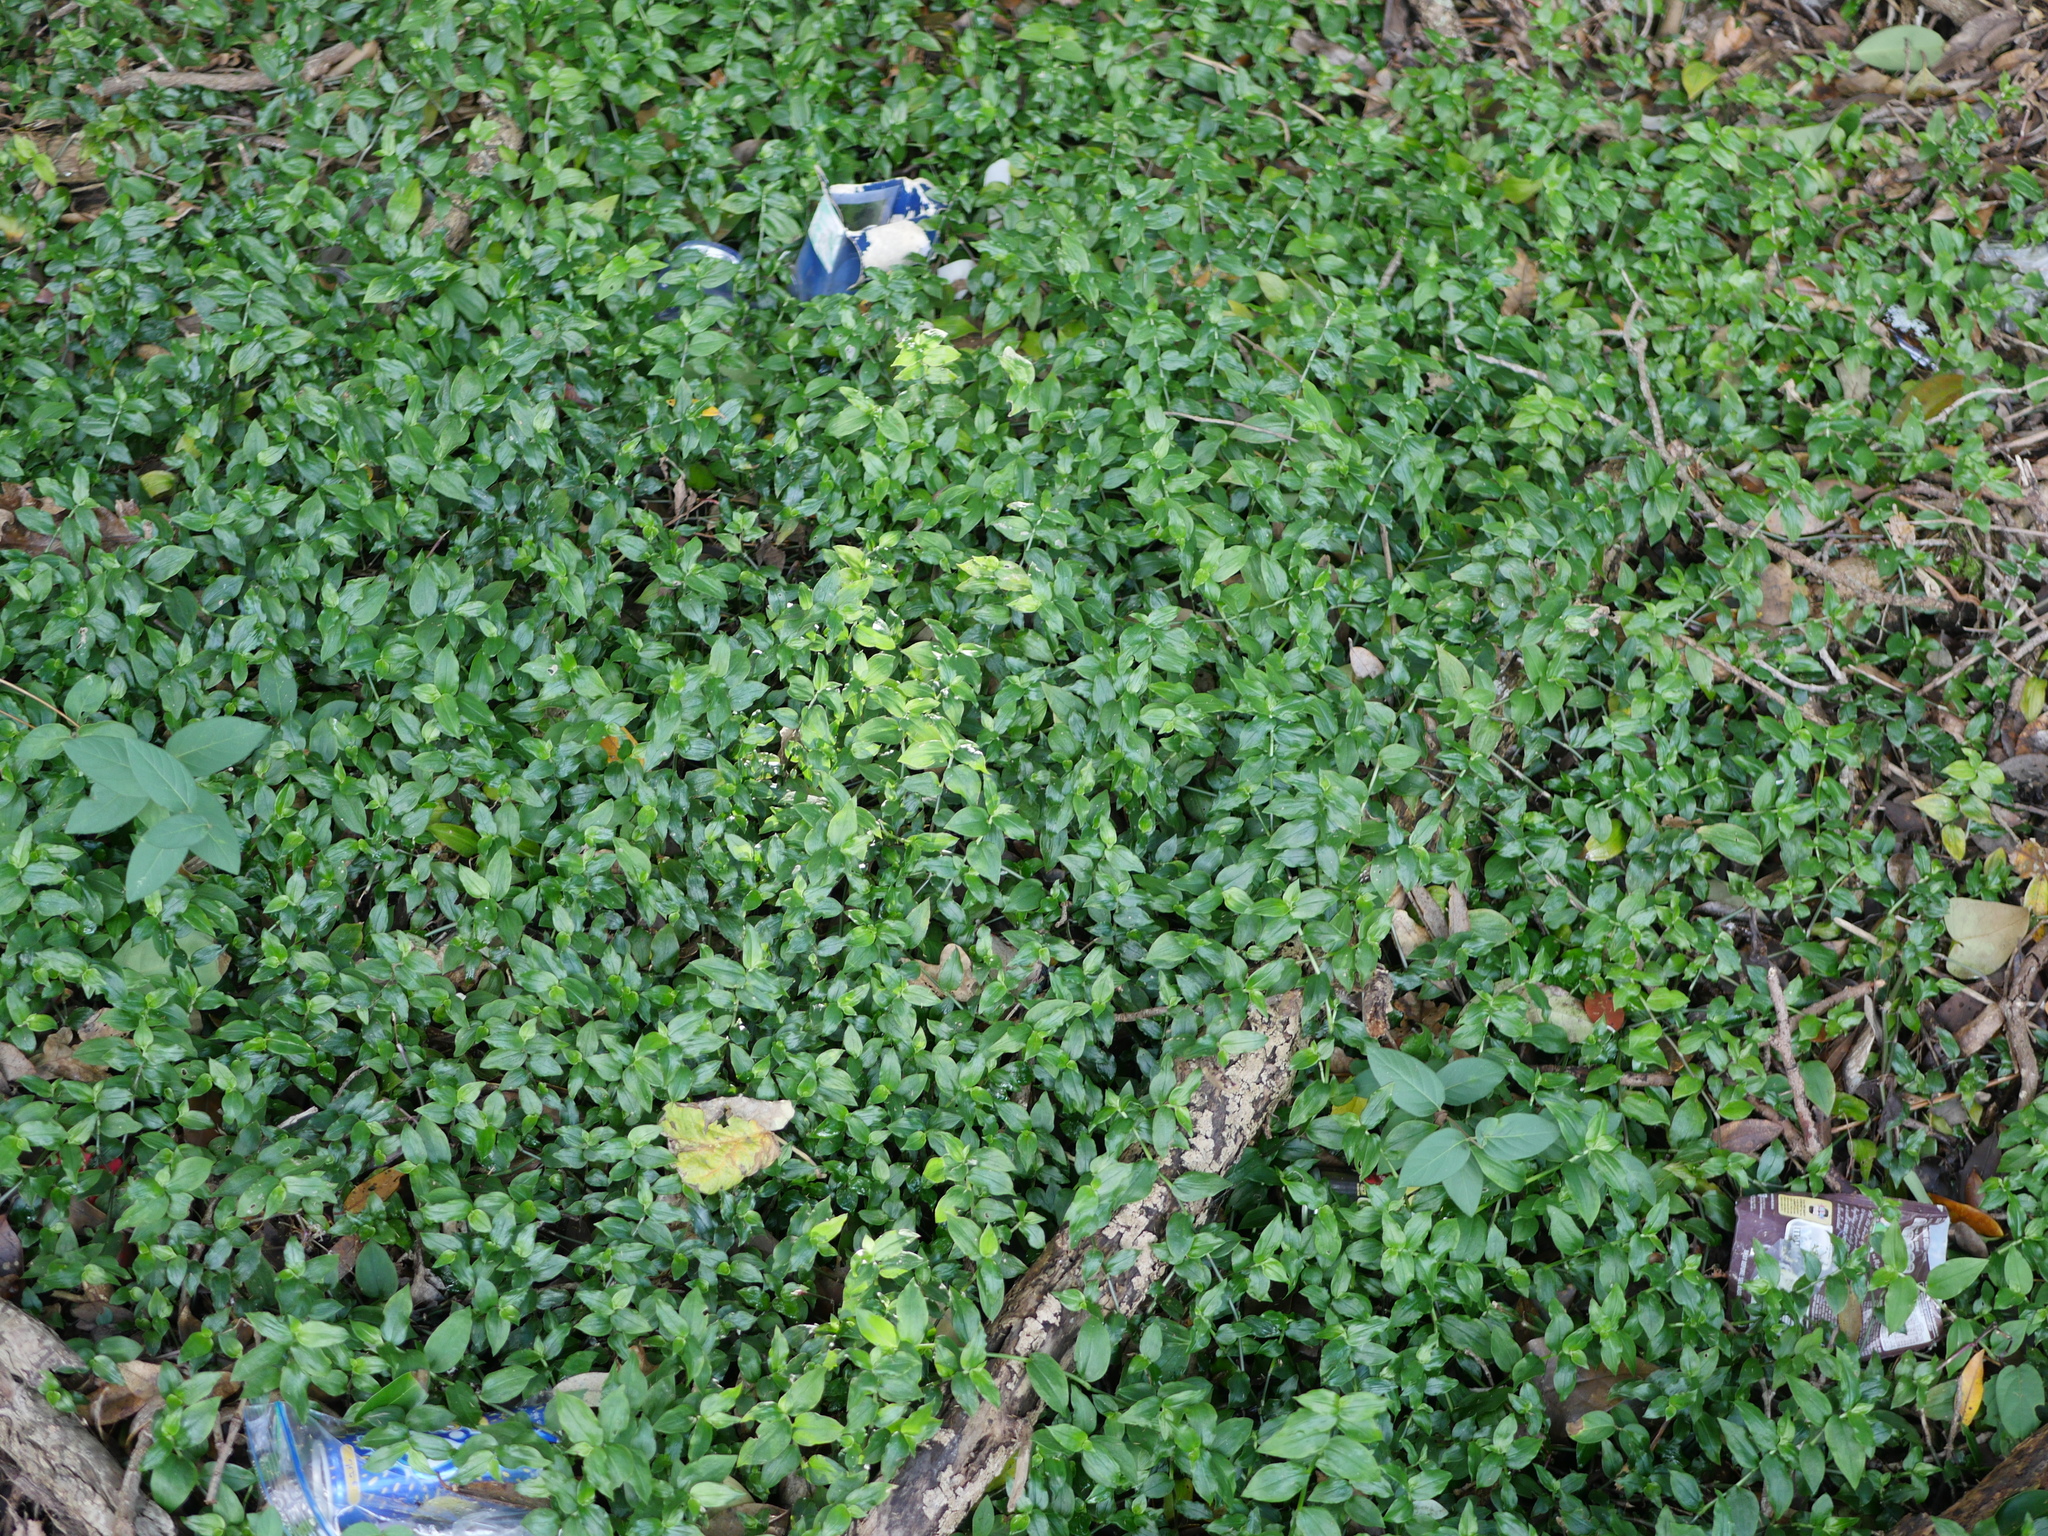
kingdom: Plantae
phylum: Tracheophyta
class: Liliopsida
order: Commelinales
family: Commelinaceae
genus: Tradescantia
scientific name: Tradescantia fluminensis
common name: Wandering-jew
